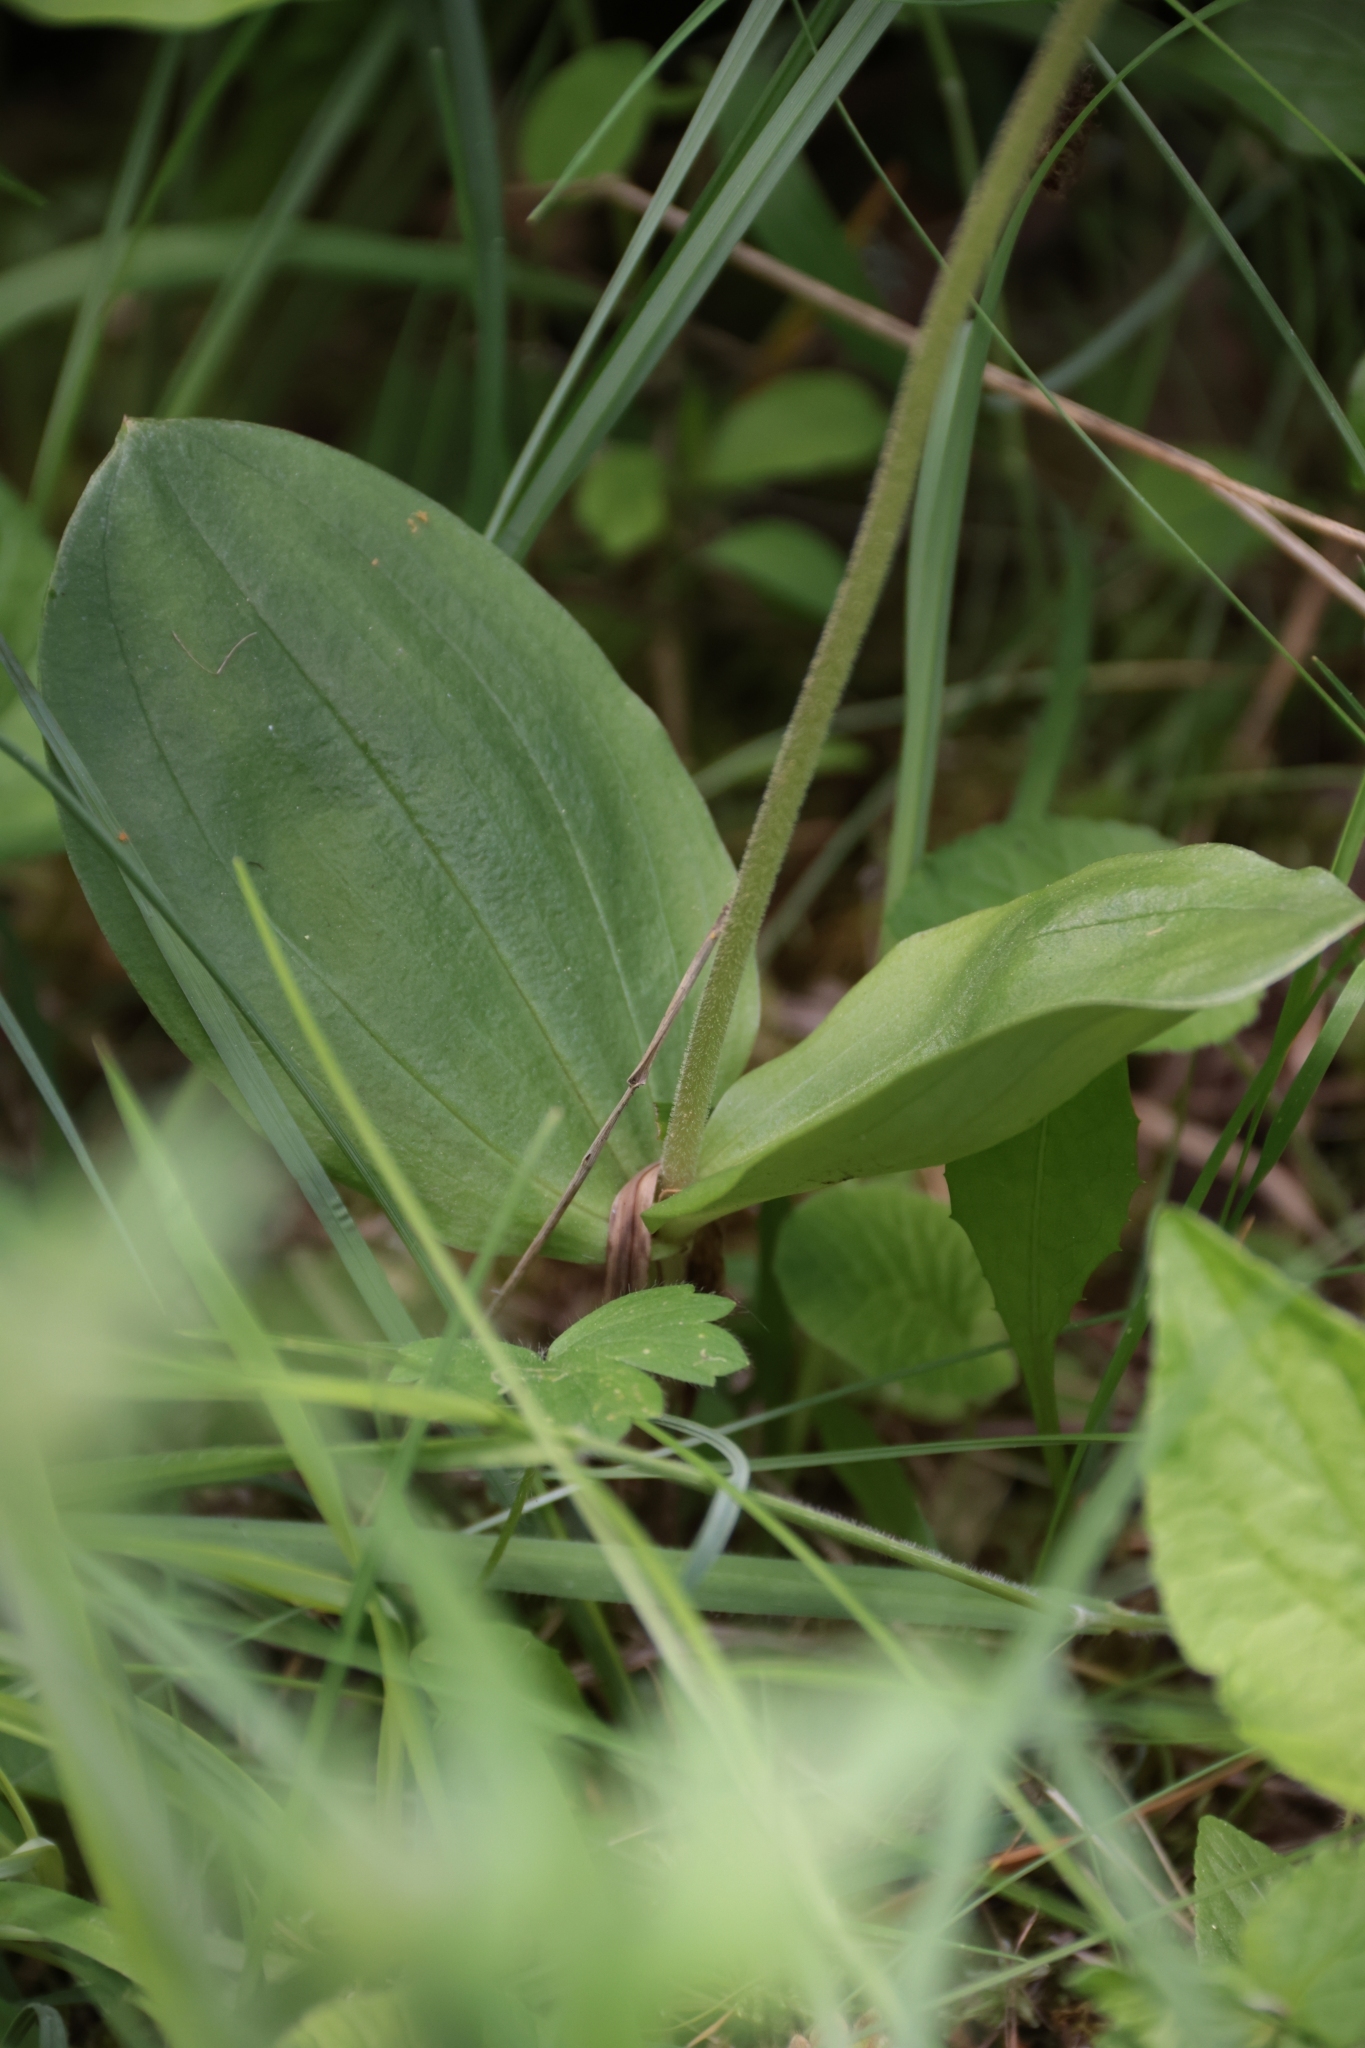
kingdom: Plantae
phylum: Tracheophyta
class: Liliopsida
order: Asparagales
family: Orchidaceae
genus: Neottia
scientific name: Neottia ovata
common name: Common twayblade
